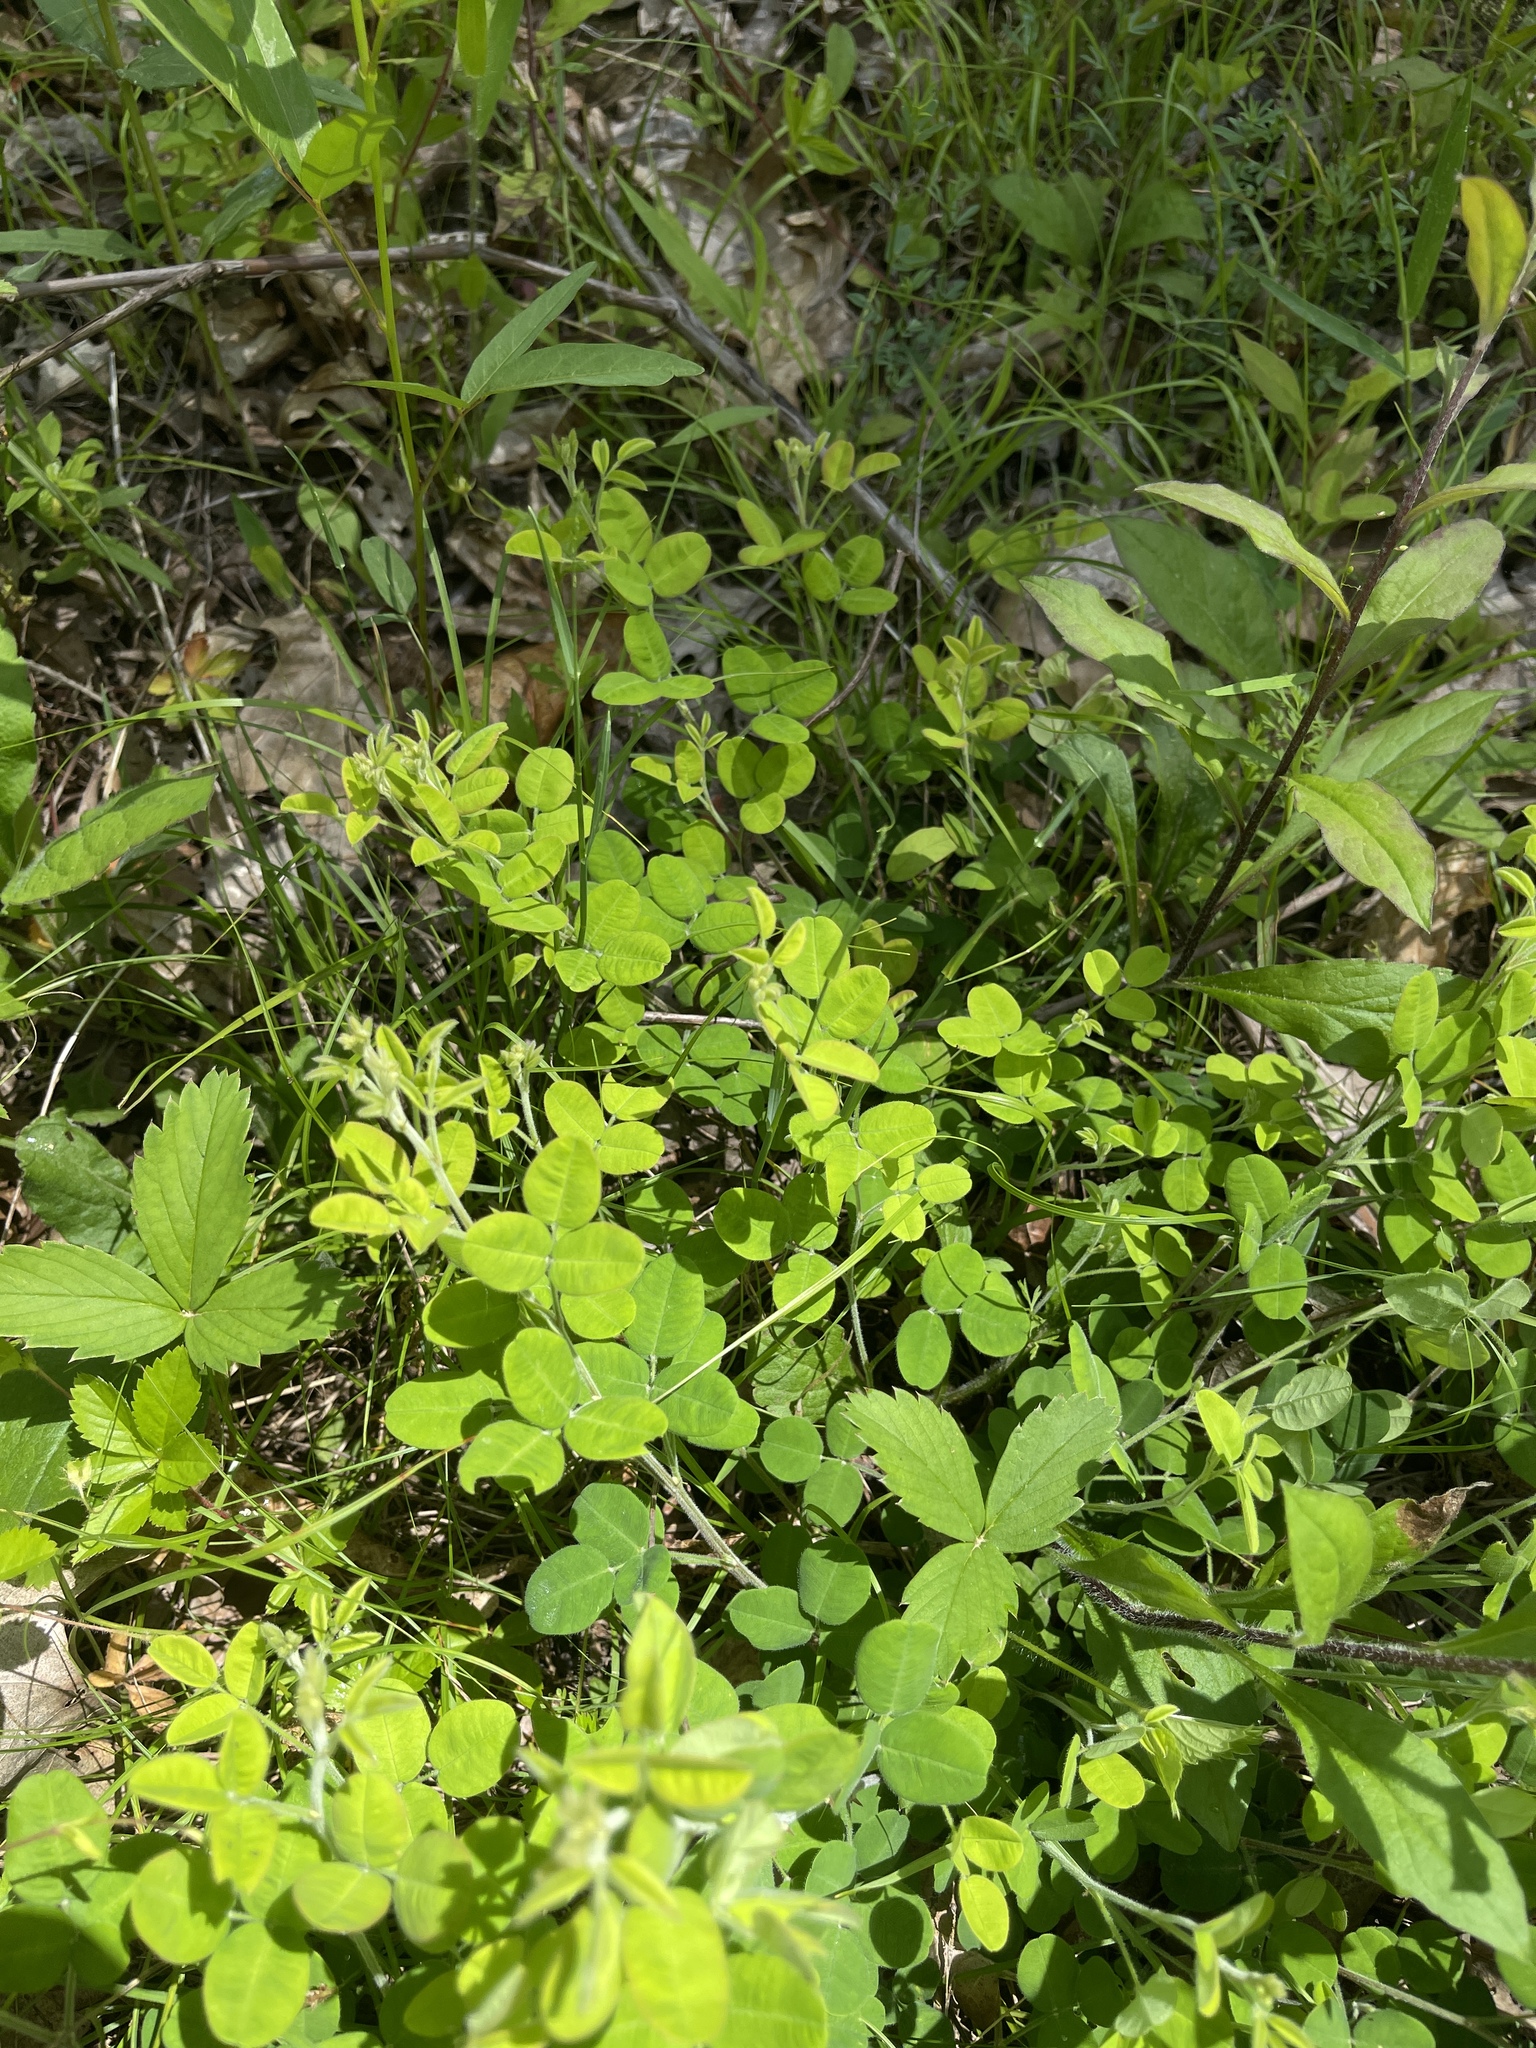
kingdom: Plantae
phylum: Tracheophyta
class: Magnoliopsida
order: Fabales
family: Fabaceae
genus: Lespedeza
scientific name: Lespedeza procumbens
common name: Downy trailing bush-clover
